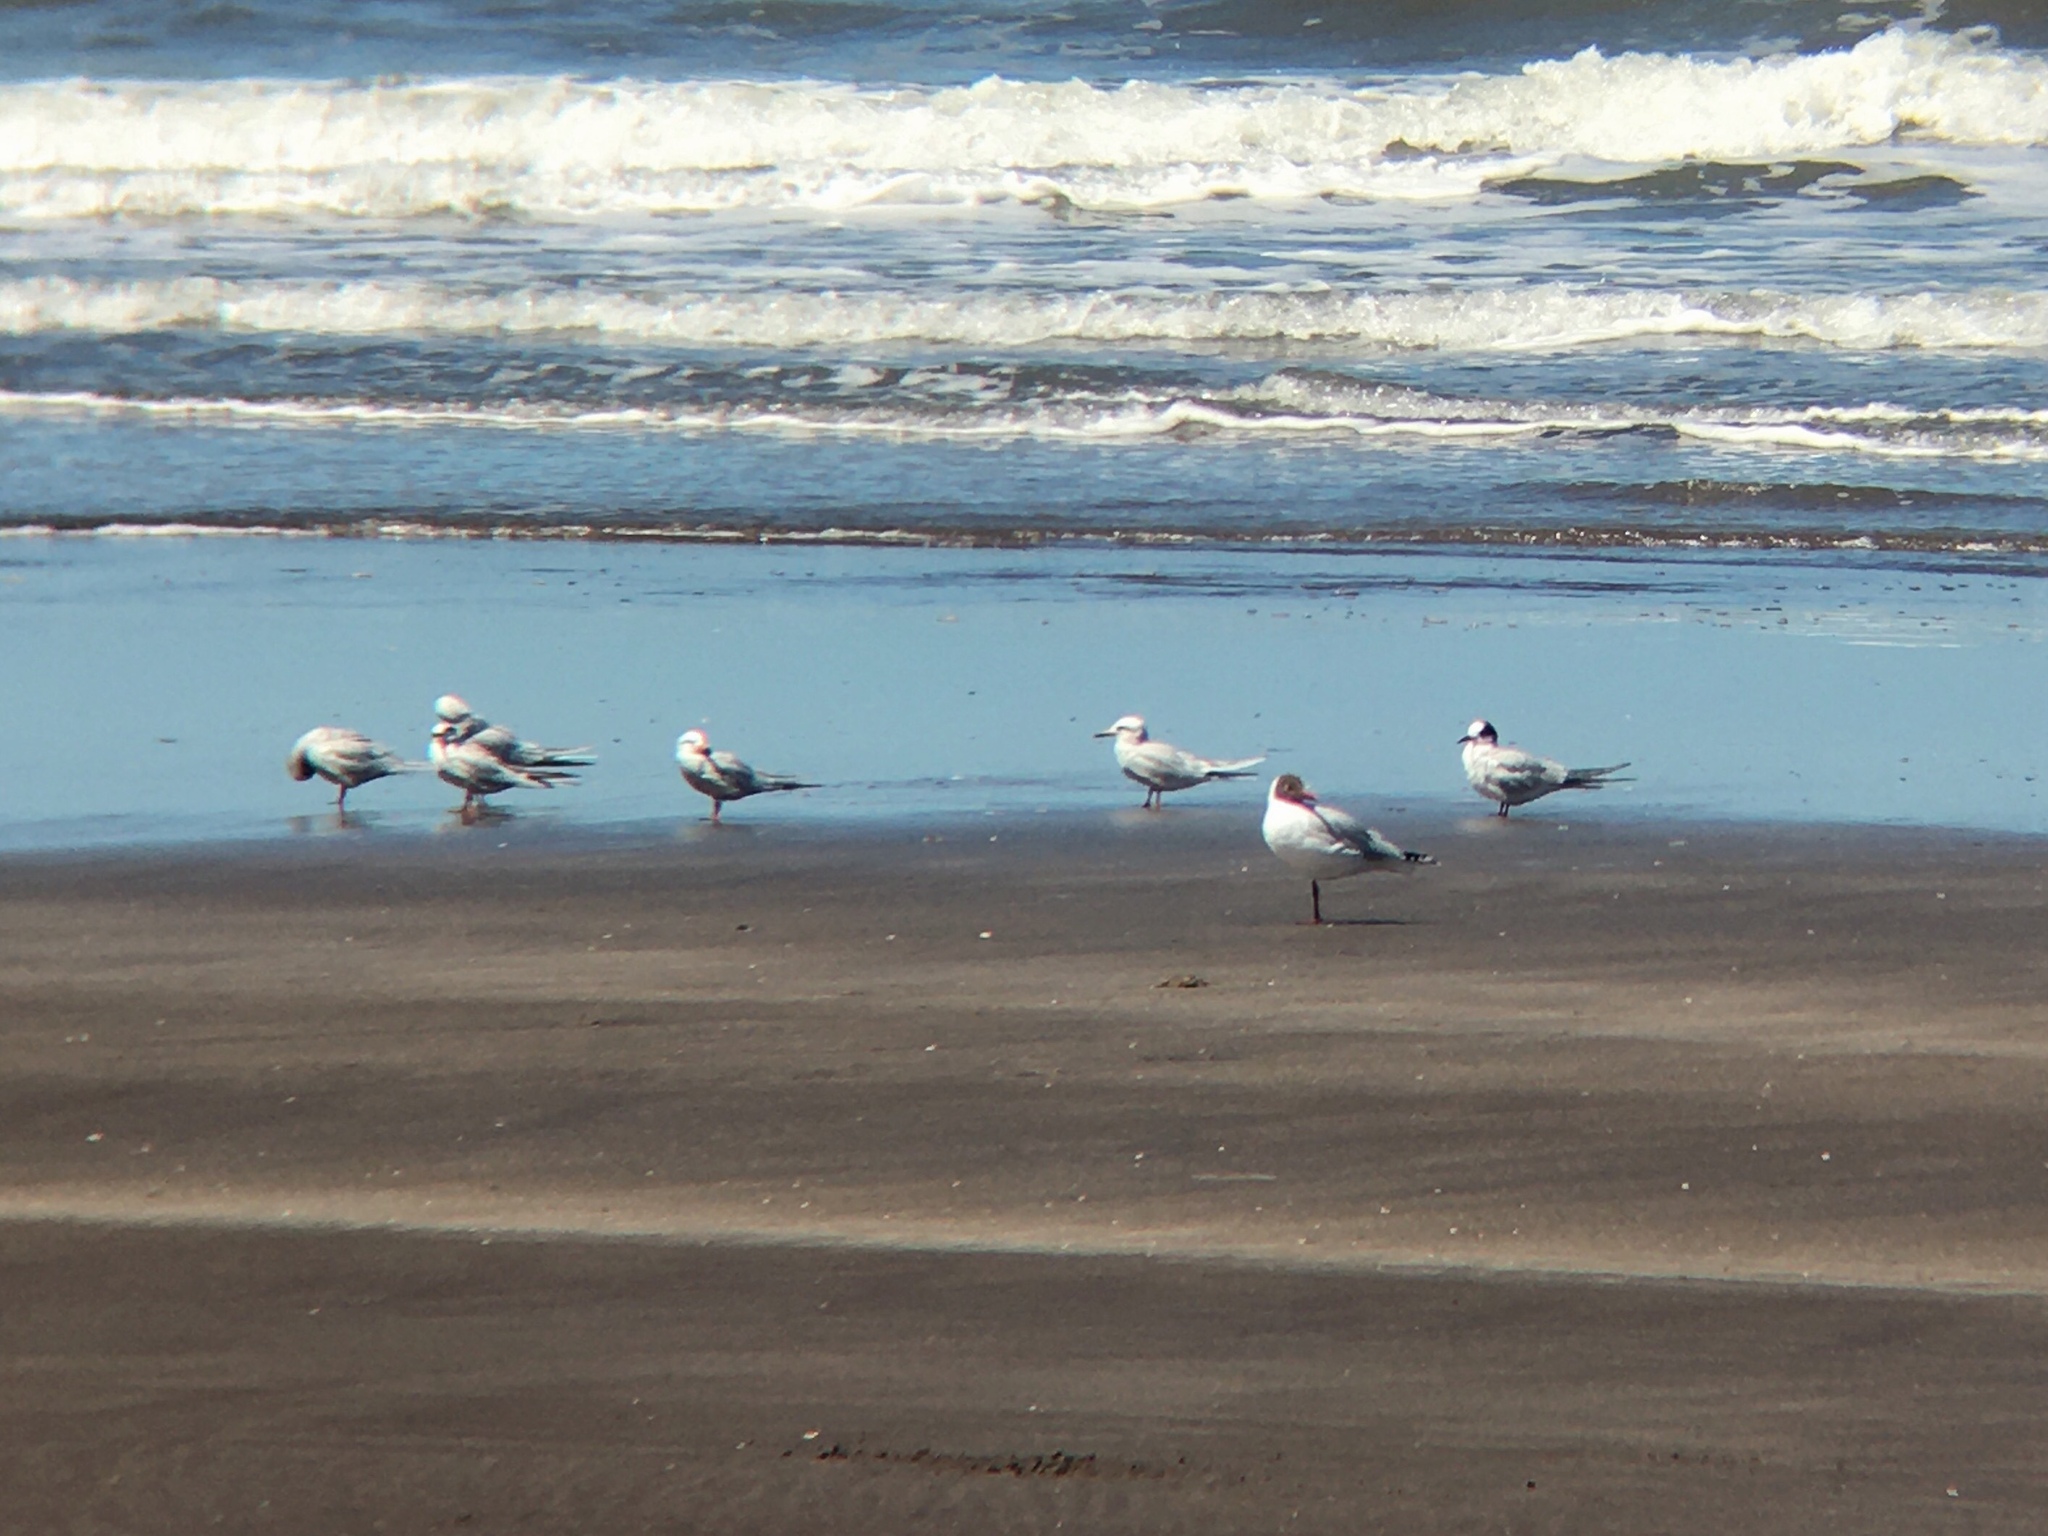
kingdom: Animalia
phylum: Chordata
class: Aves
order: Charadriiformes
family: Laridae
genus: Gelochelidon
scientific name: Gelochelidon nilotica
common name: Gull-billed tern
